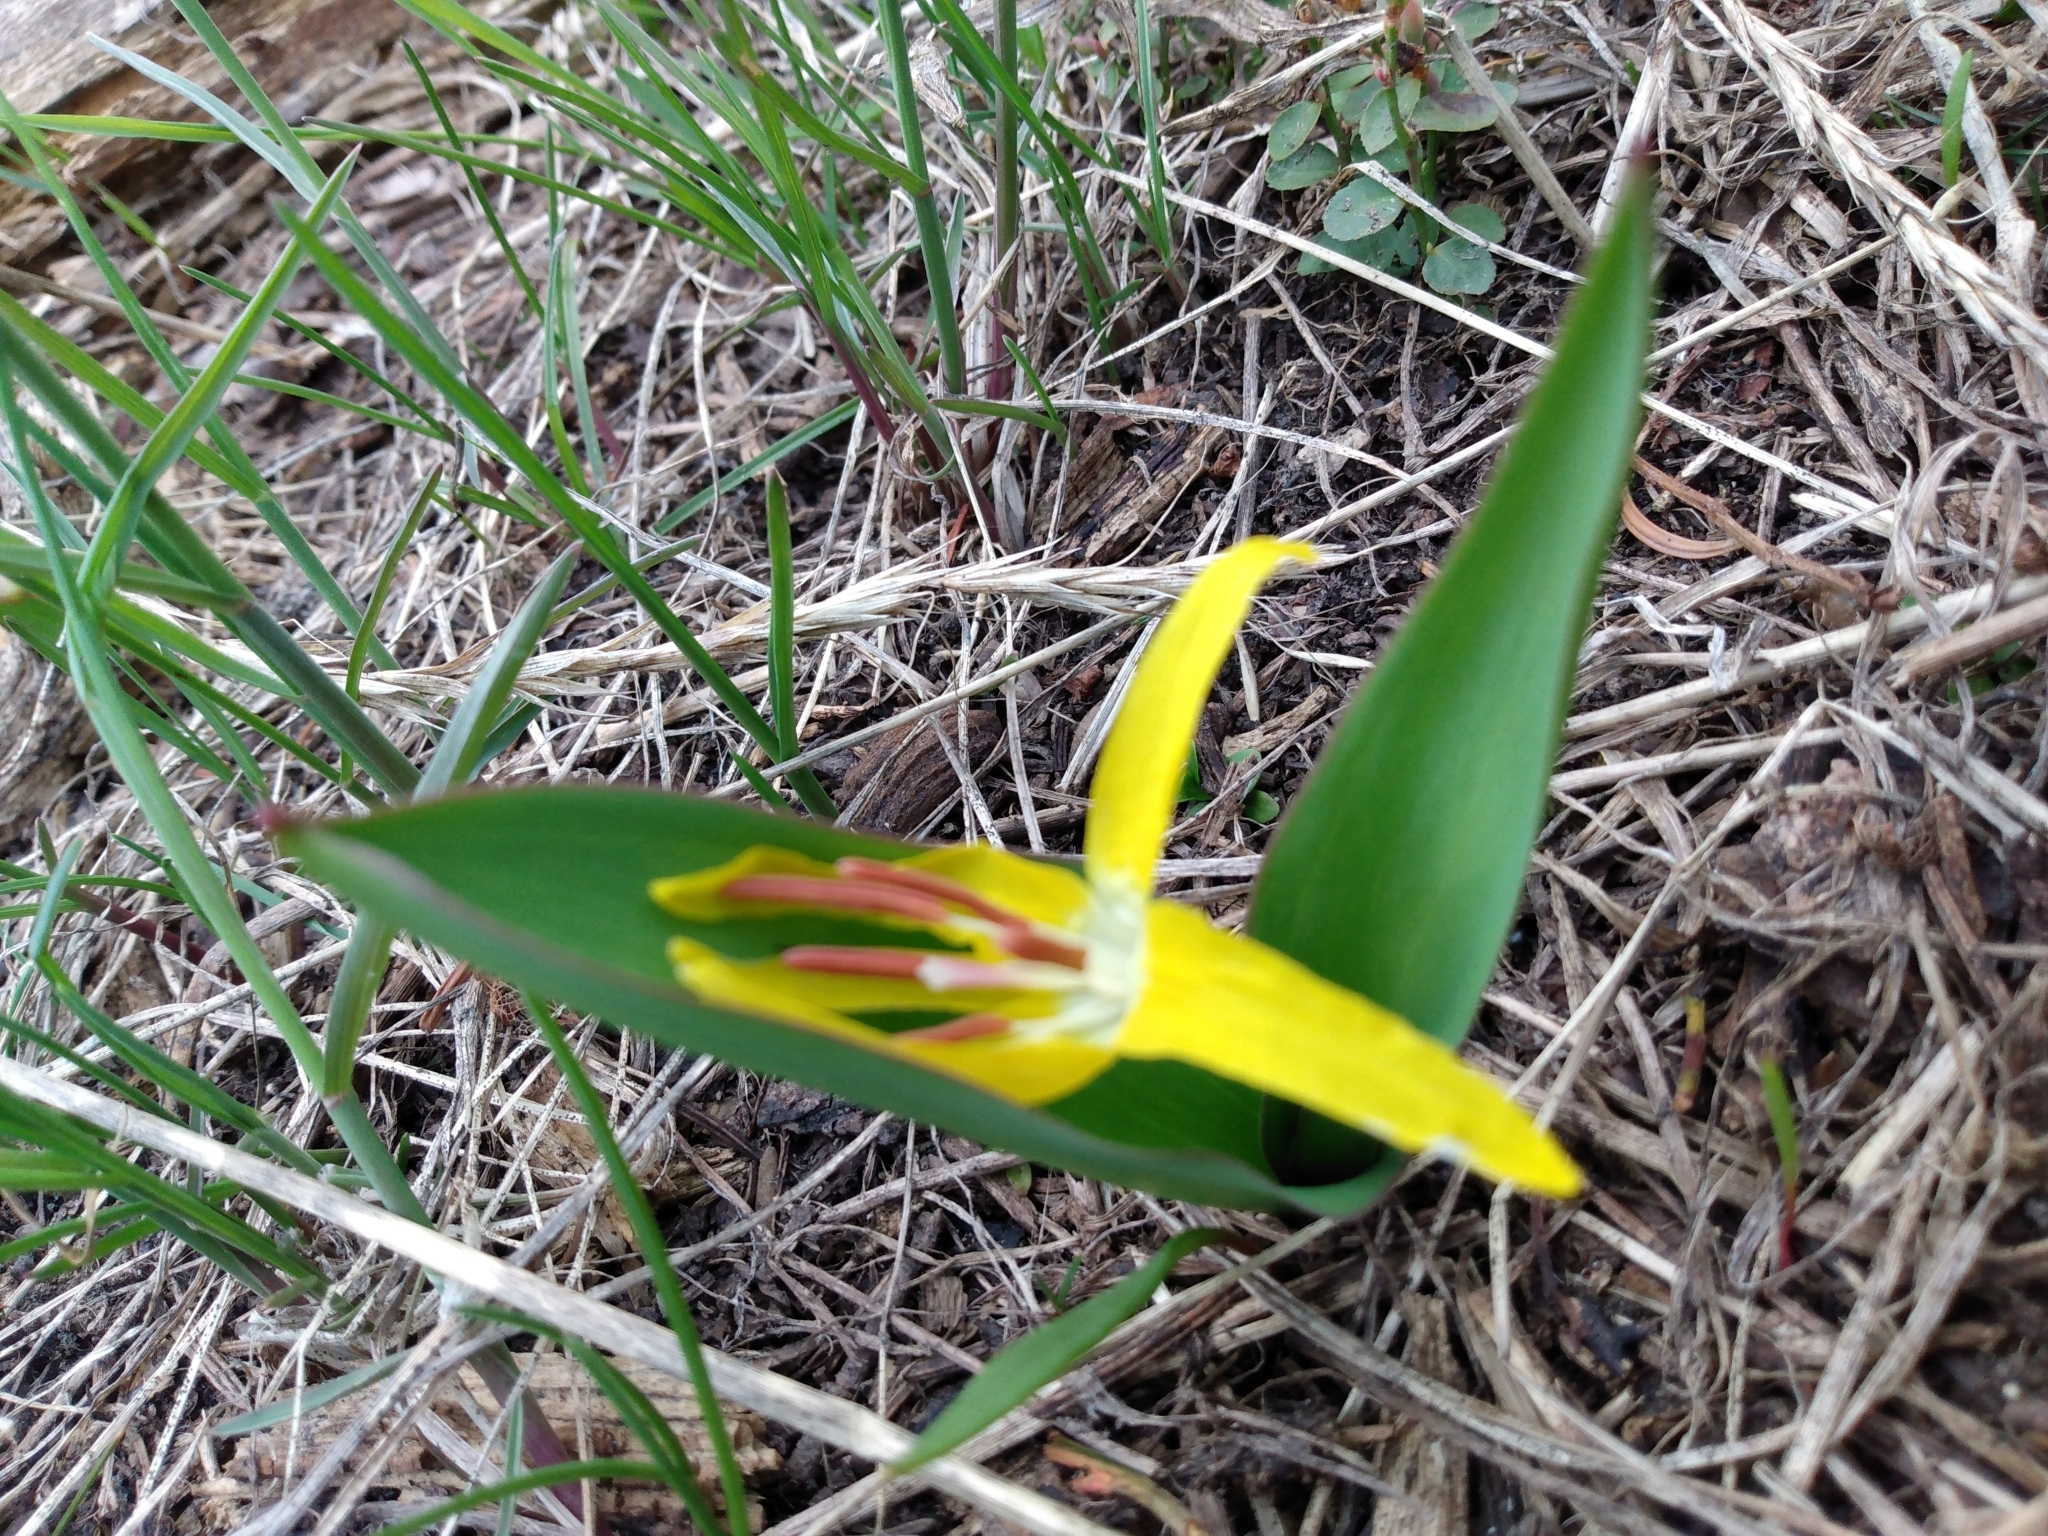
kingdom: Plantae
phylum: Tracheophyta
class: Liliopsida
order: Liliales
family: Liliaceae
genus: Erythronium
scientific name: Erythronium grandiflorum
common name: Avalanche-lily
